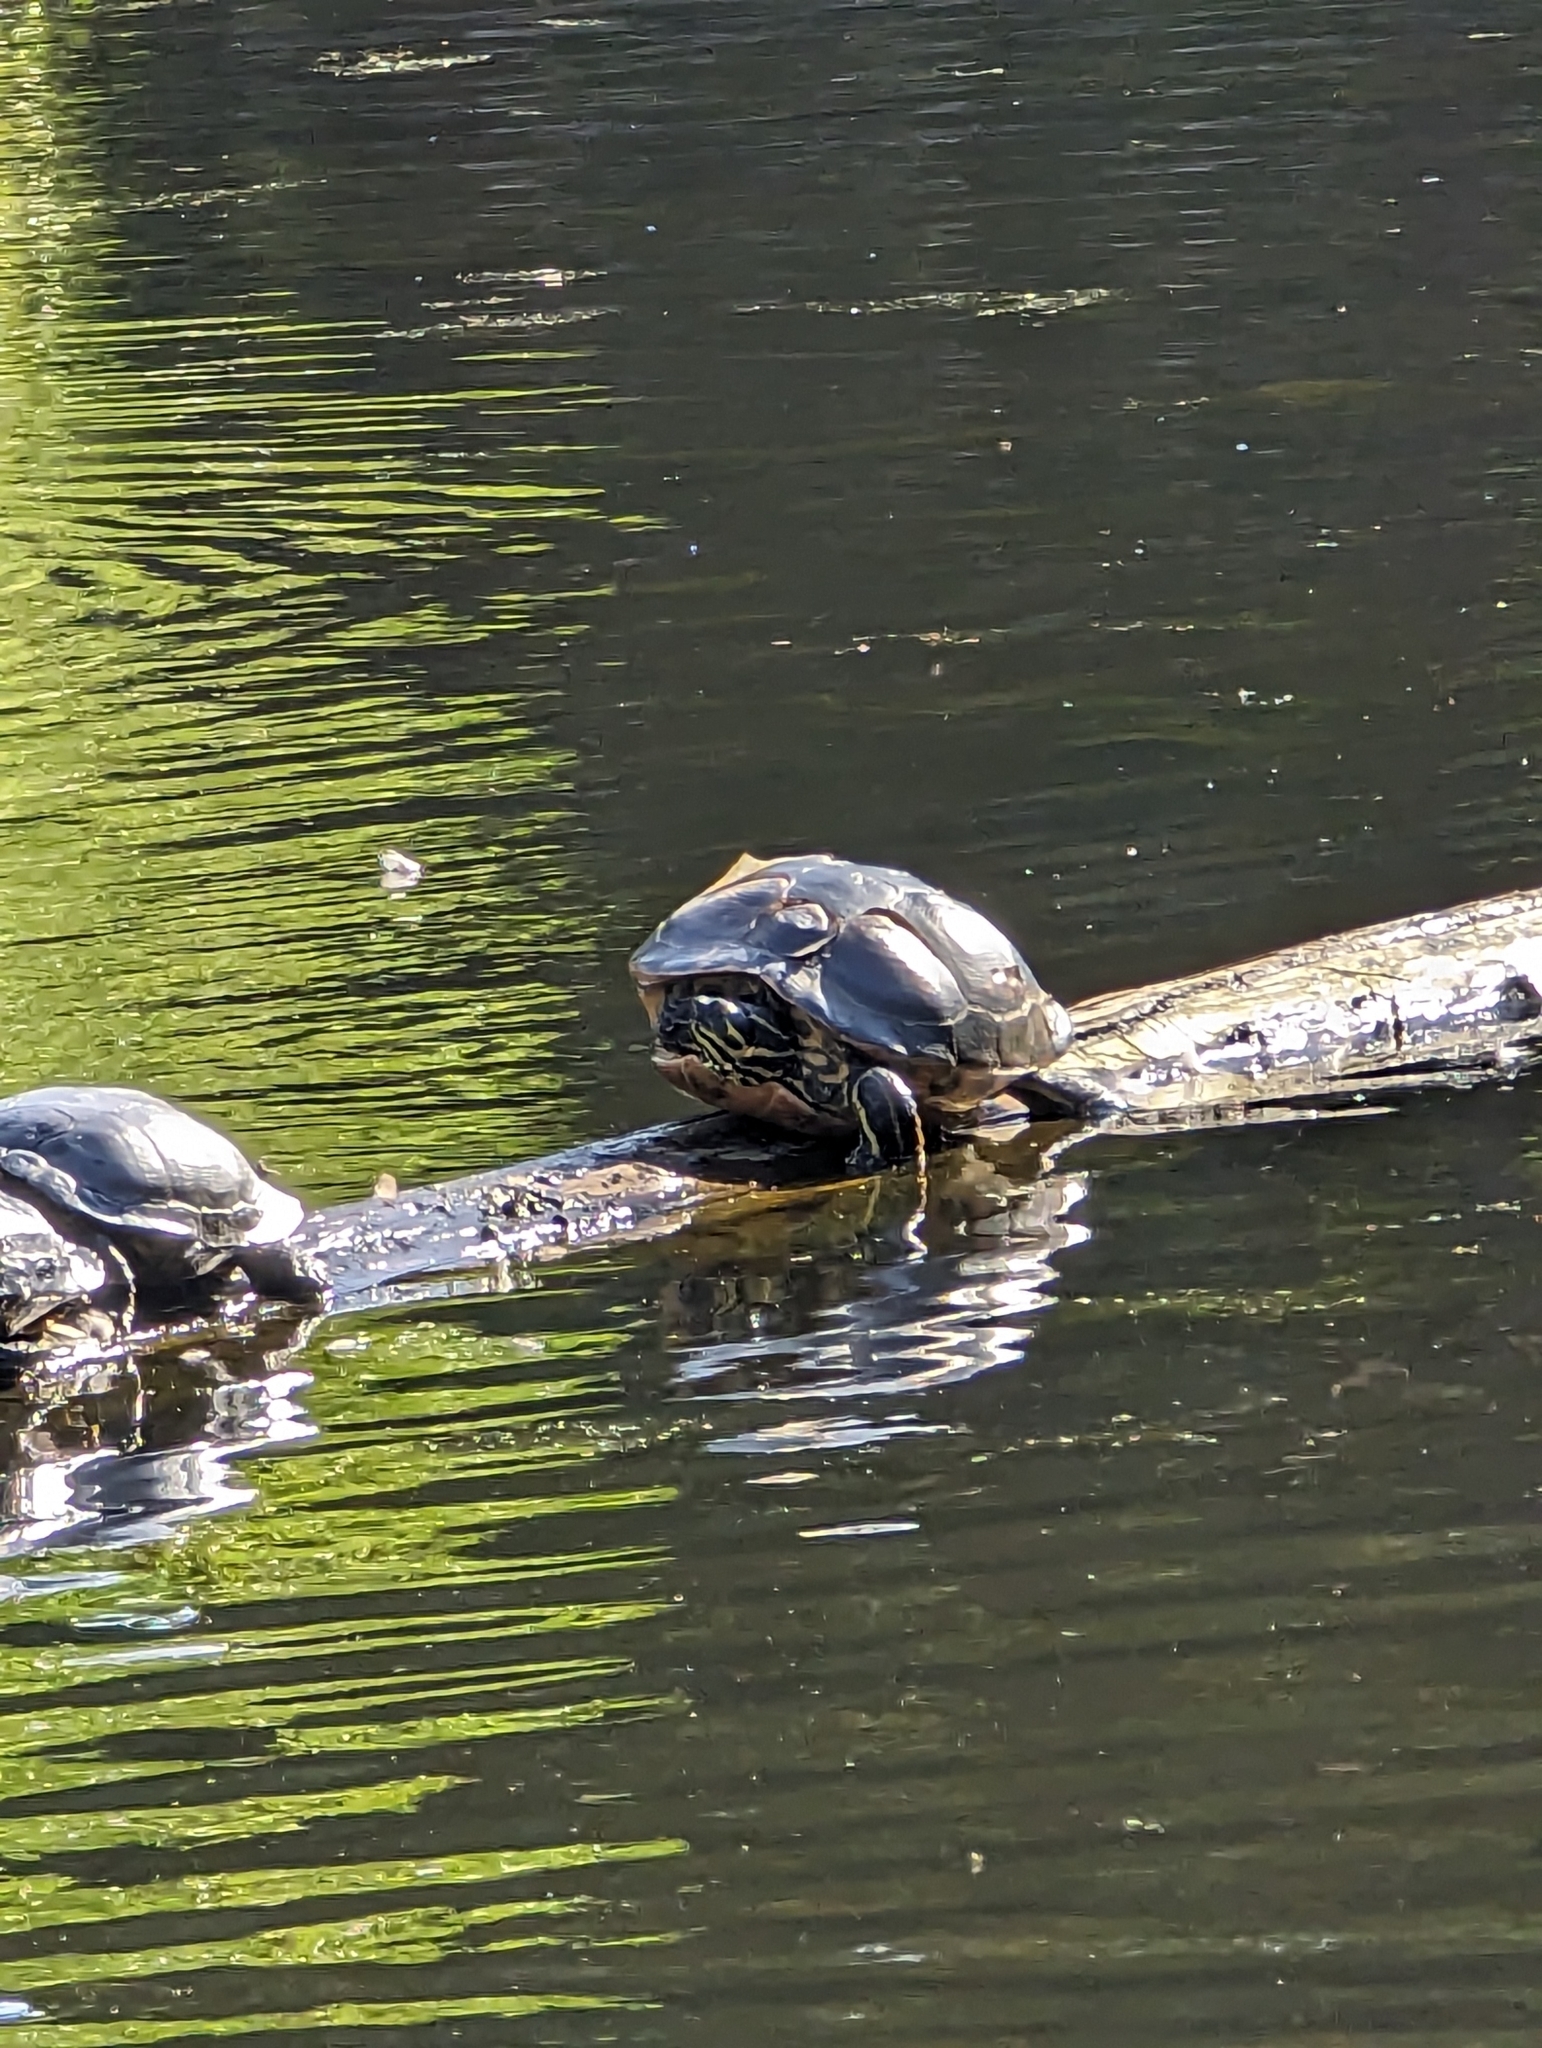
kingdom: Animalia
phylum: Chordata
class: Testudines
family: Emydidae
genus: Pseudemys
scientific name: Pseudemys concinna
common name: Eastern river cooter
